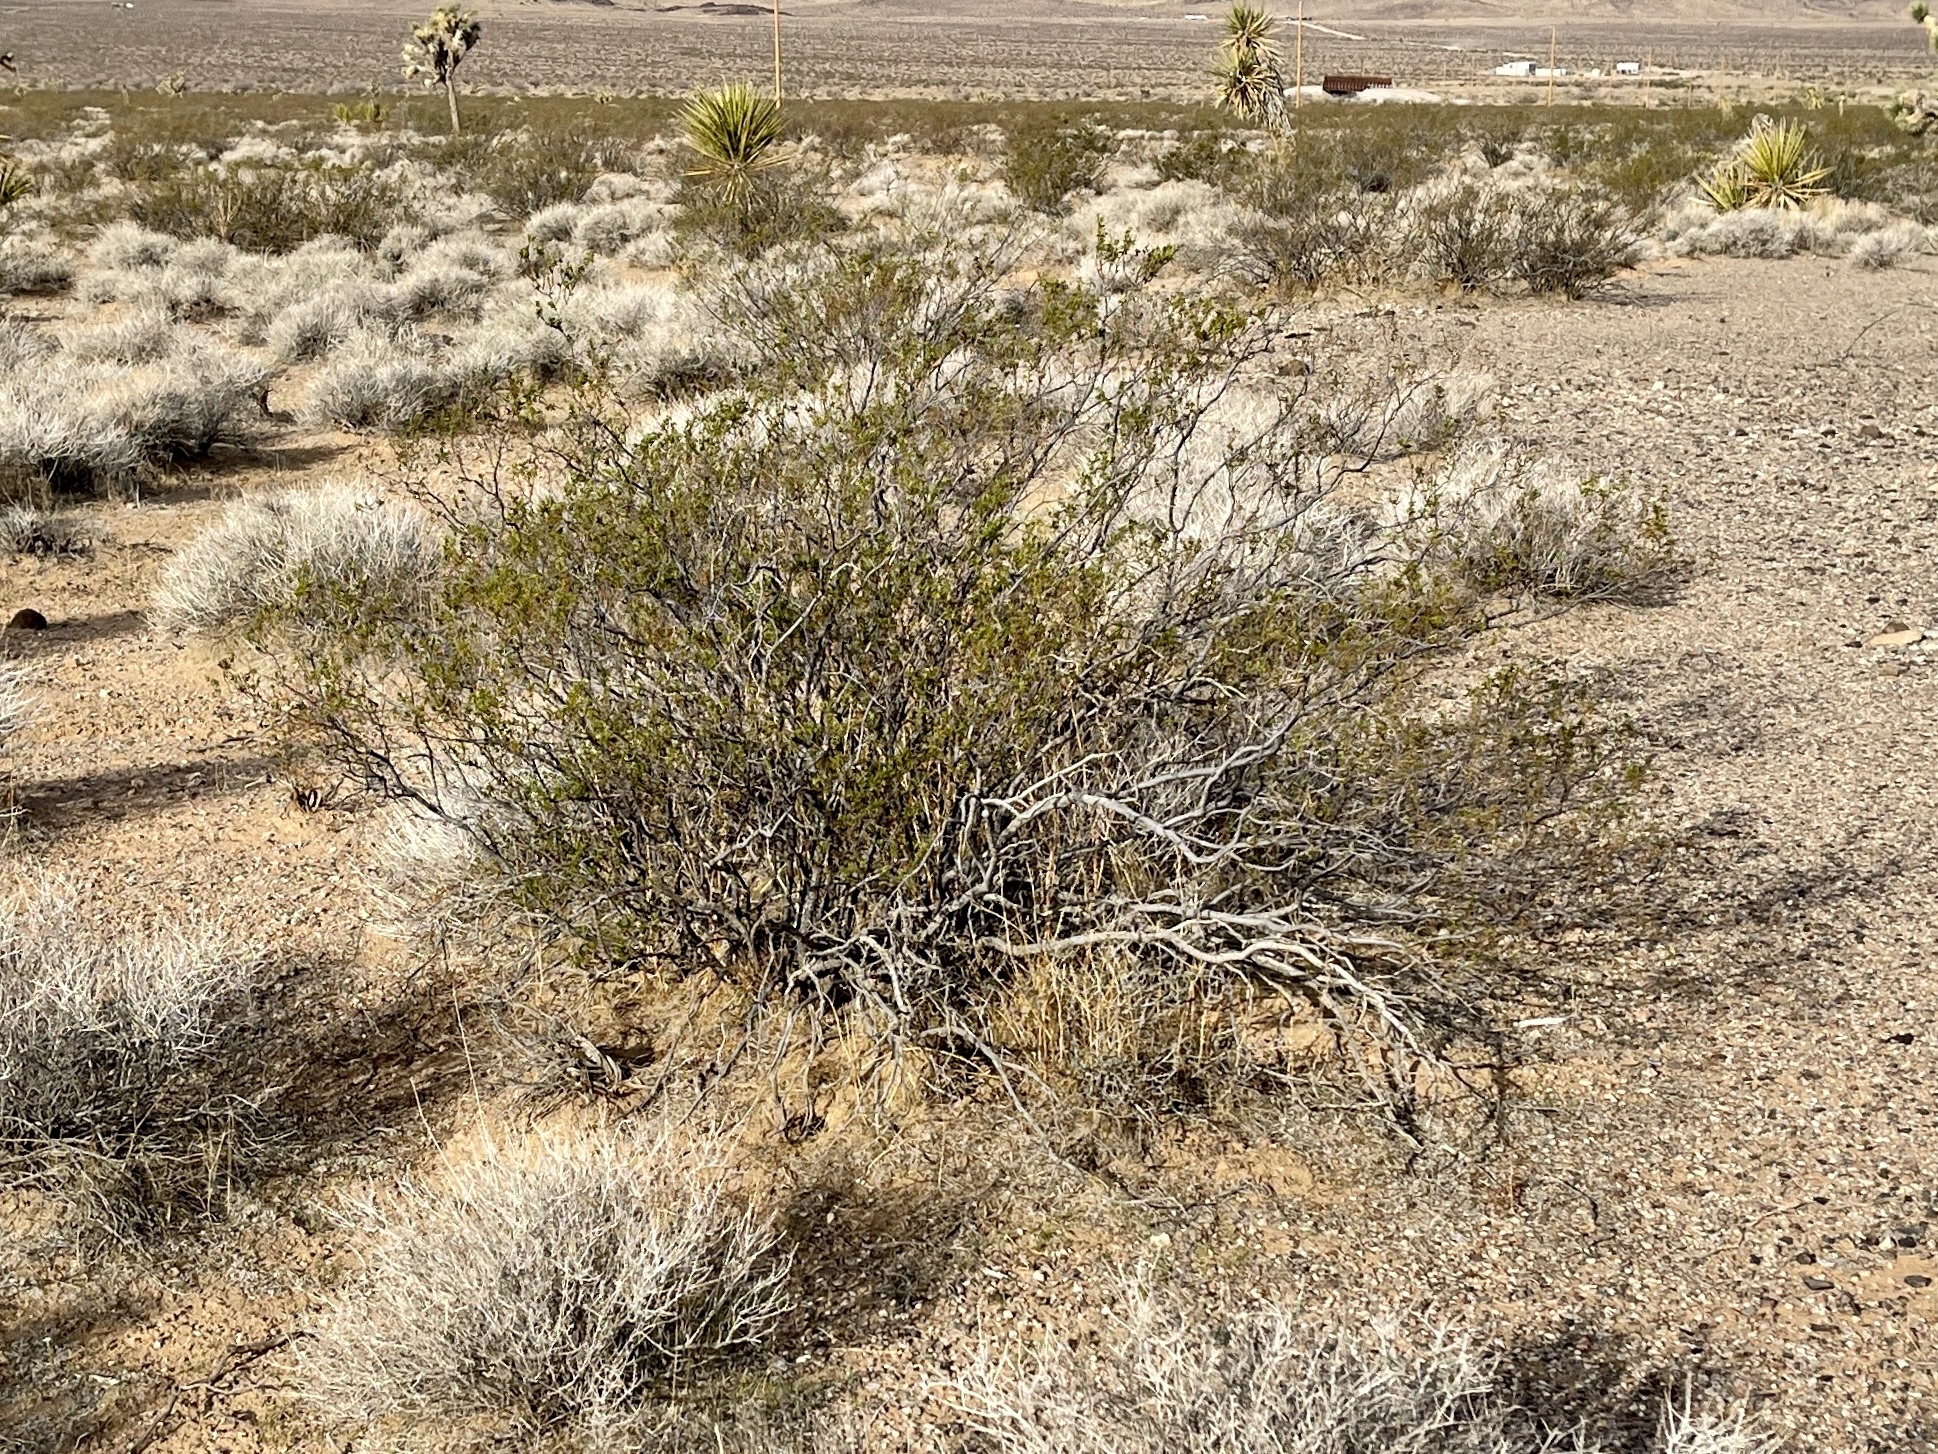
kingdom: Plantae
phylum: Tracheophyta
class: Magnoliopsida
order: Zygophyllales
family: Zygophyllaceae
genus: Larrea
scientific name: Larrea tridentata
